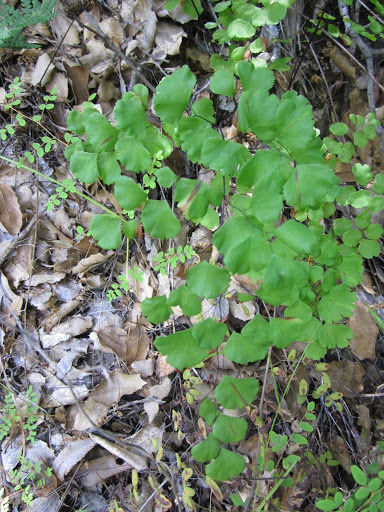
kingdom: Plantae
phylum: Tracheophyta
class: Polypodiopsida
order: Polypodiales
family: Pteridaceae
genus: Adiantum
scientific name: Adiantum jordanii
